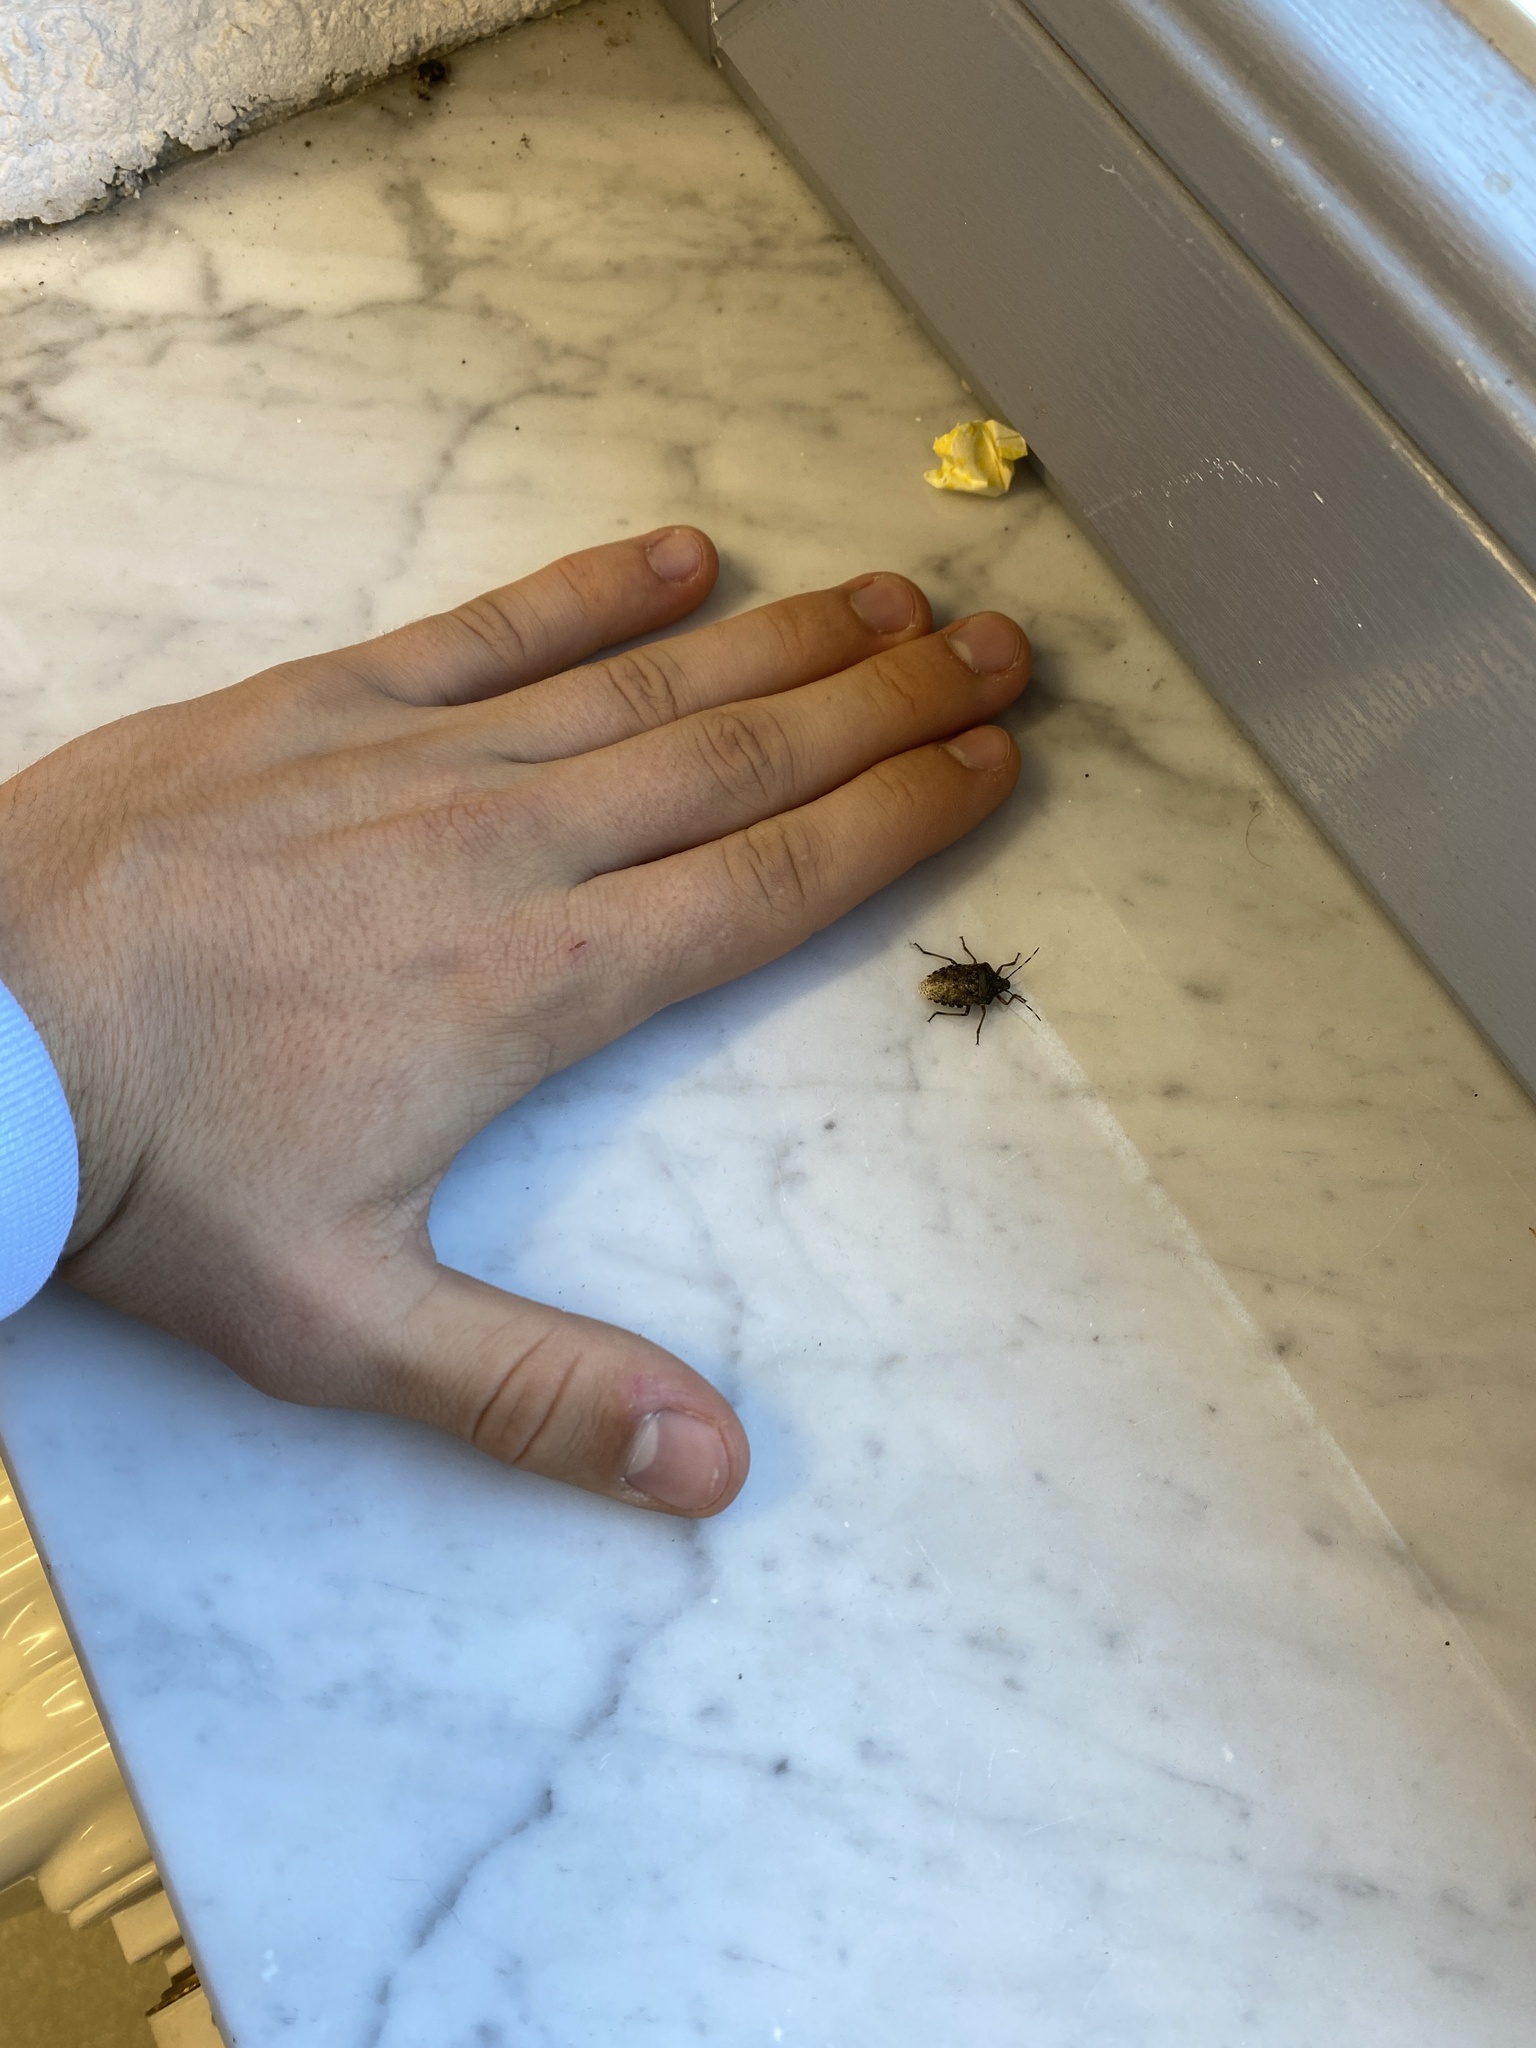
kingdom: Animalia
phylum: Arthropoda
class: Insecta
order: Hemiptera
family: Pentatomidae
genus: Rhaphigaster
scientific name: Rhaphigaster nebulosa
